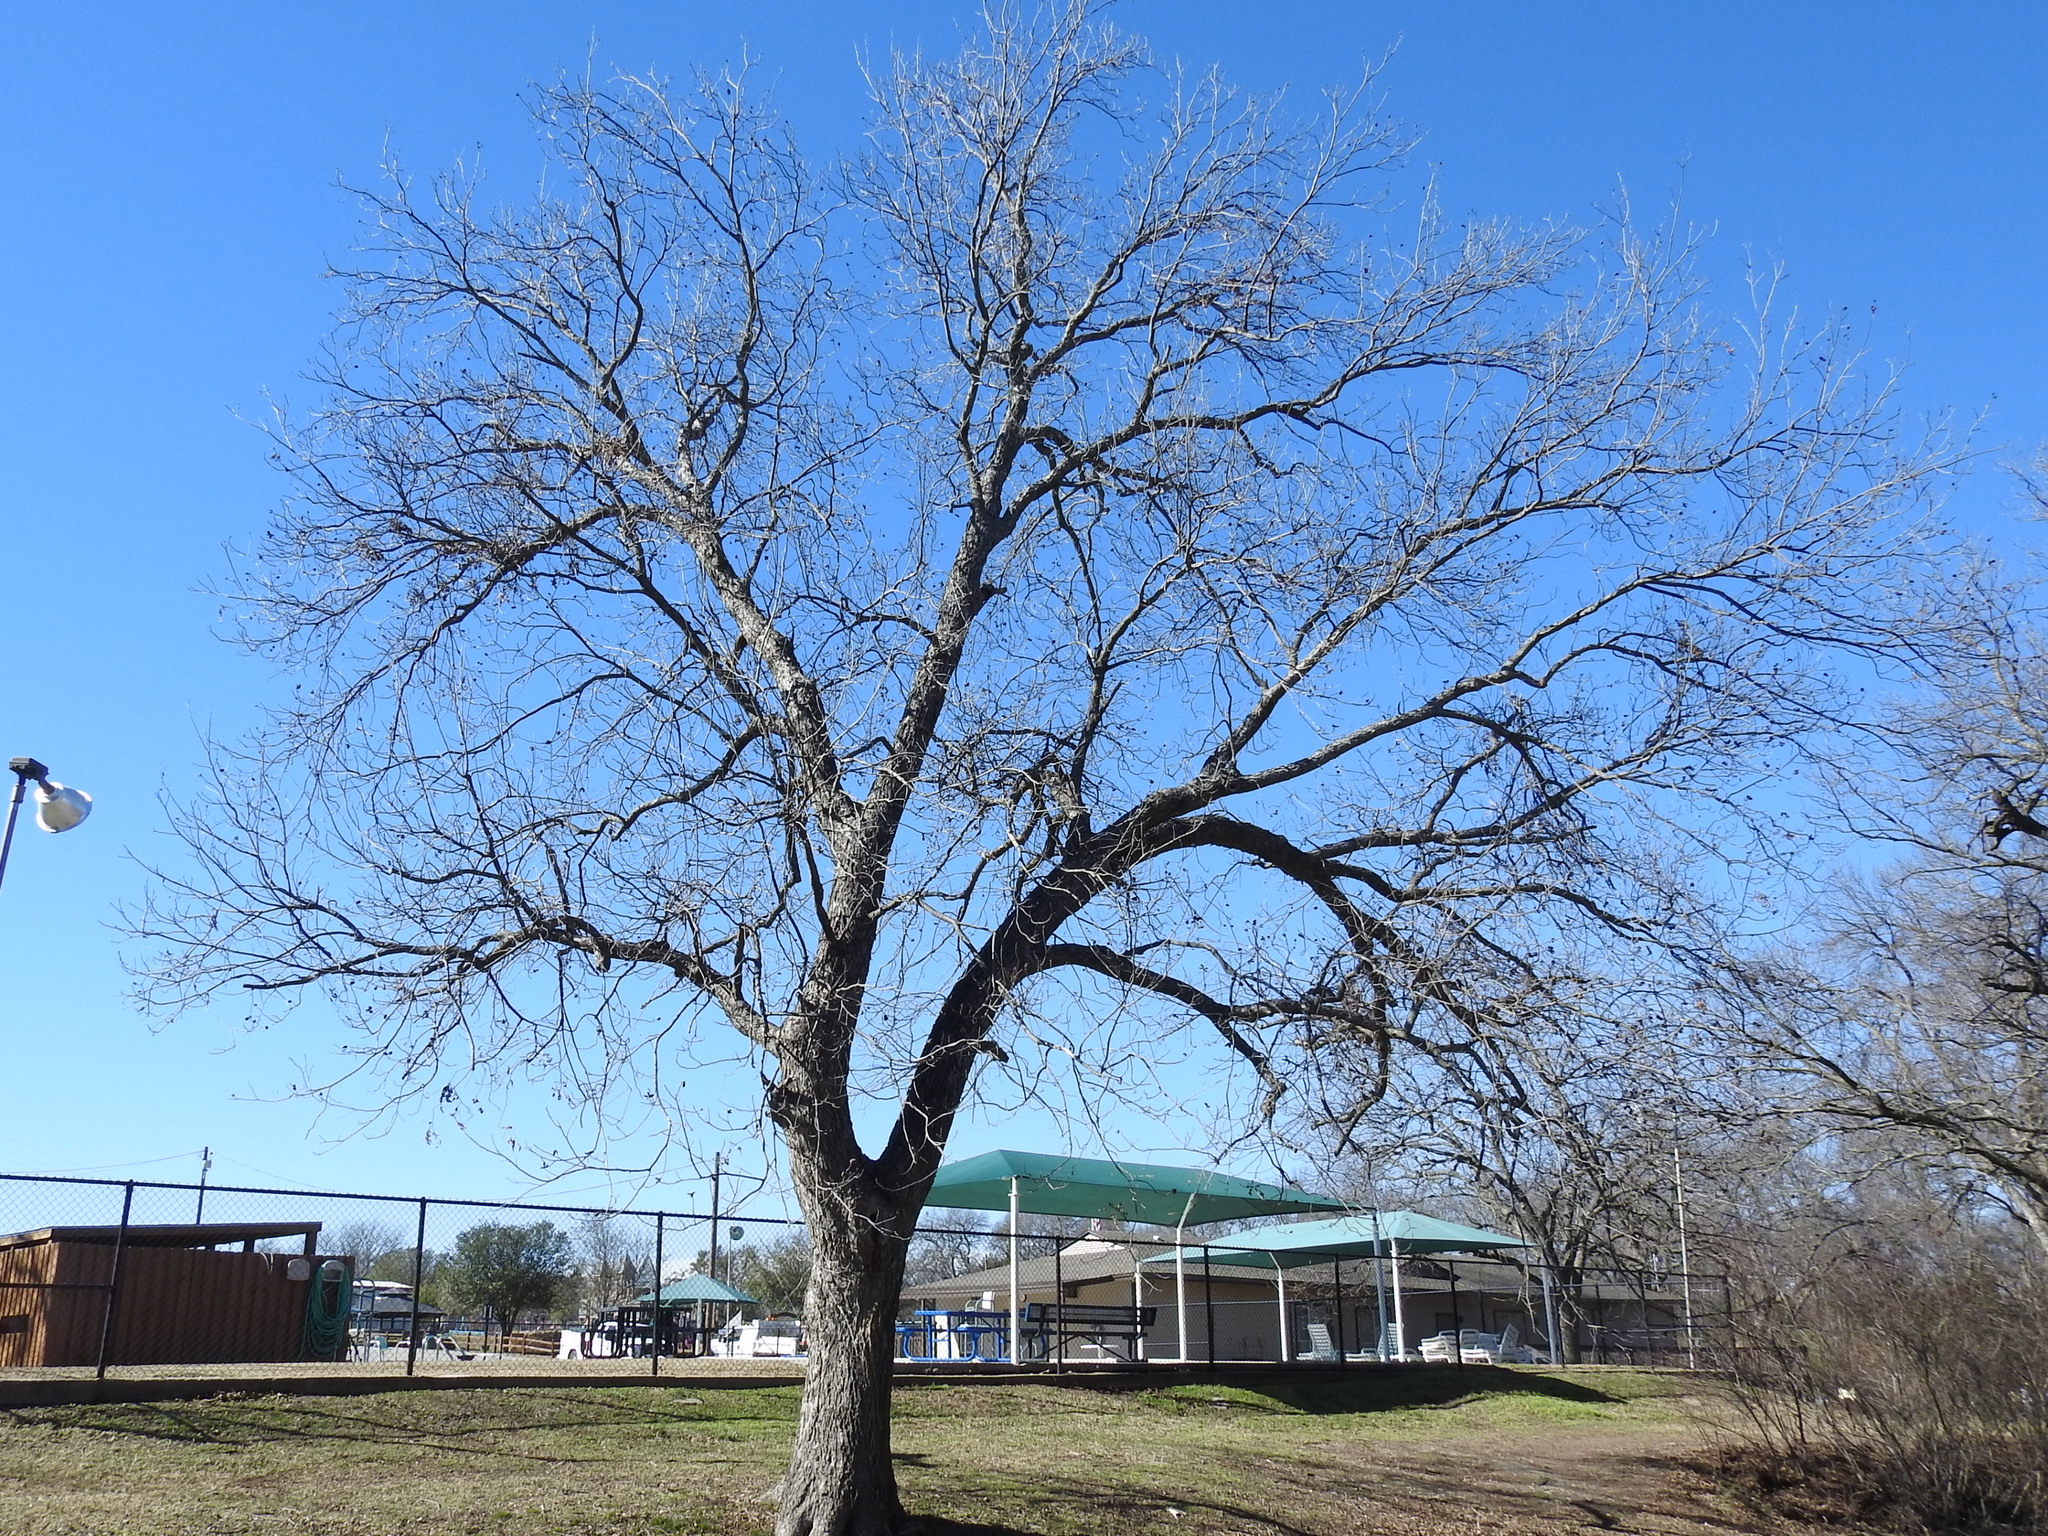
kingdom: Plantae
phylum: Tracheophyta
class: Magnoliopsida
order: Fagales
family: Juglandaceae
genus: Carya
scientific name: Carya illinoinensis
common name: Pecan
